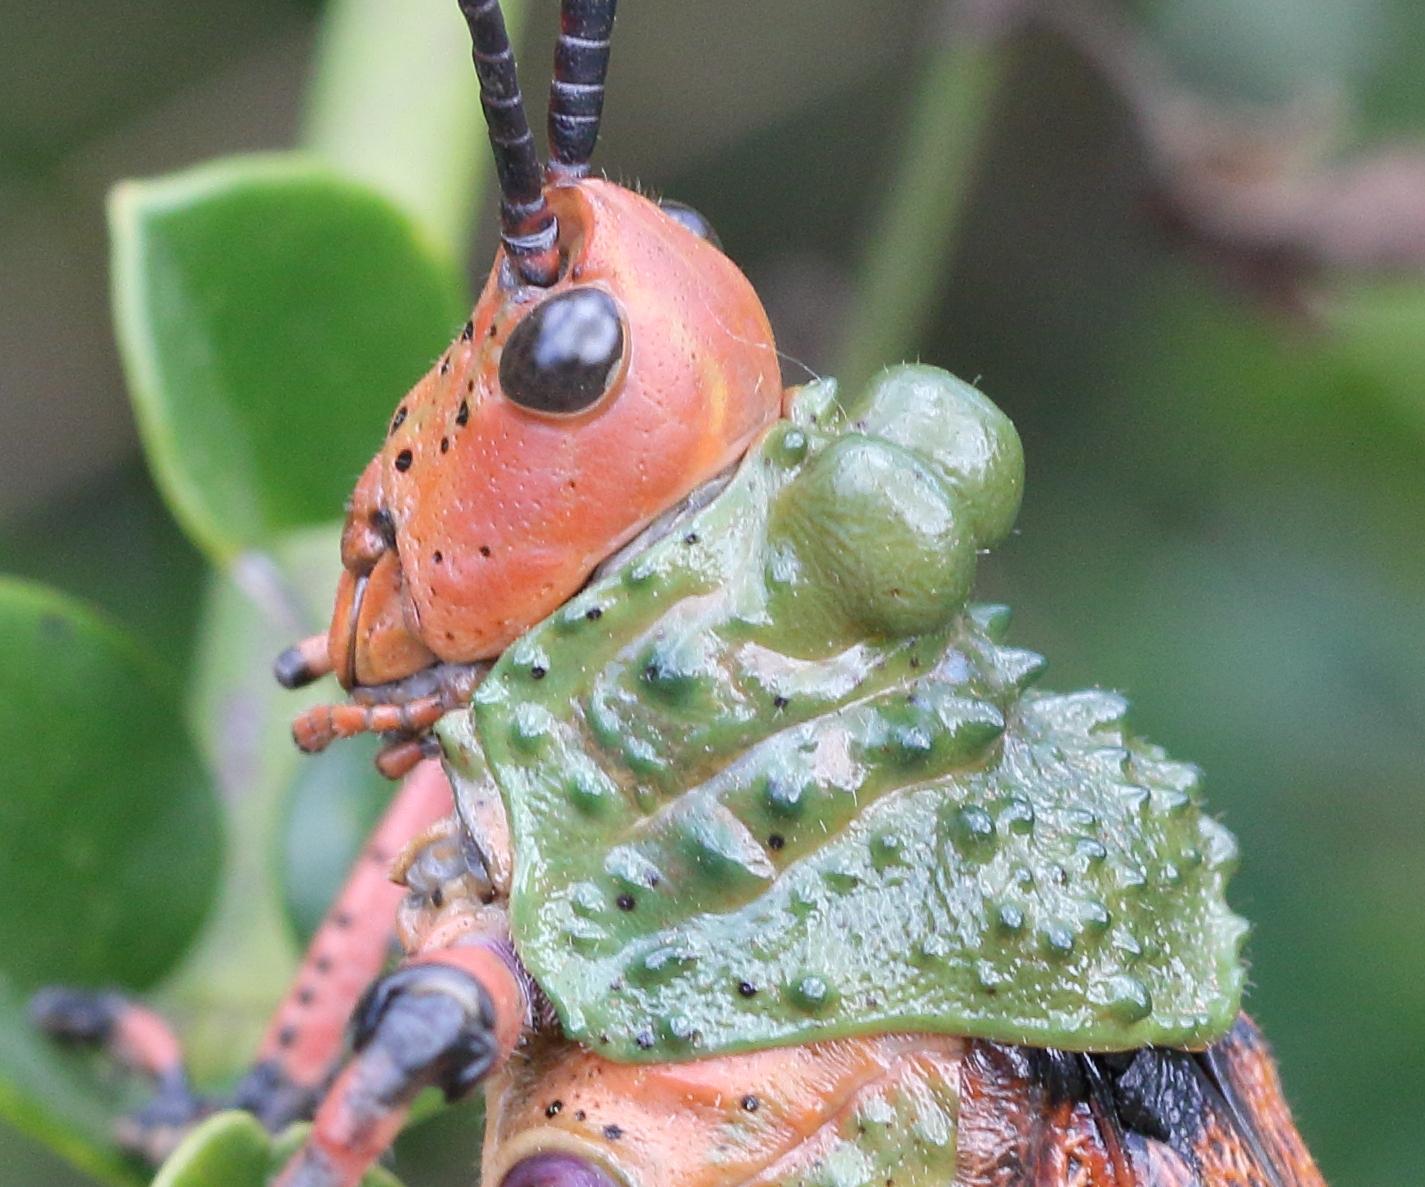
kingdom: Animalia
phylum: Arthropoda
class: Insecta
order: Orthoptera
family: Pyrgomorphidae
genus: Phymateus
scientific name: Phymateus leprosus
